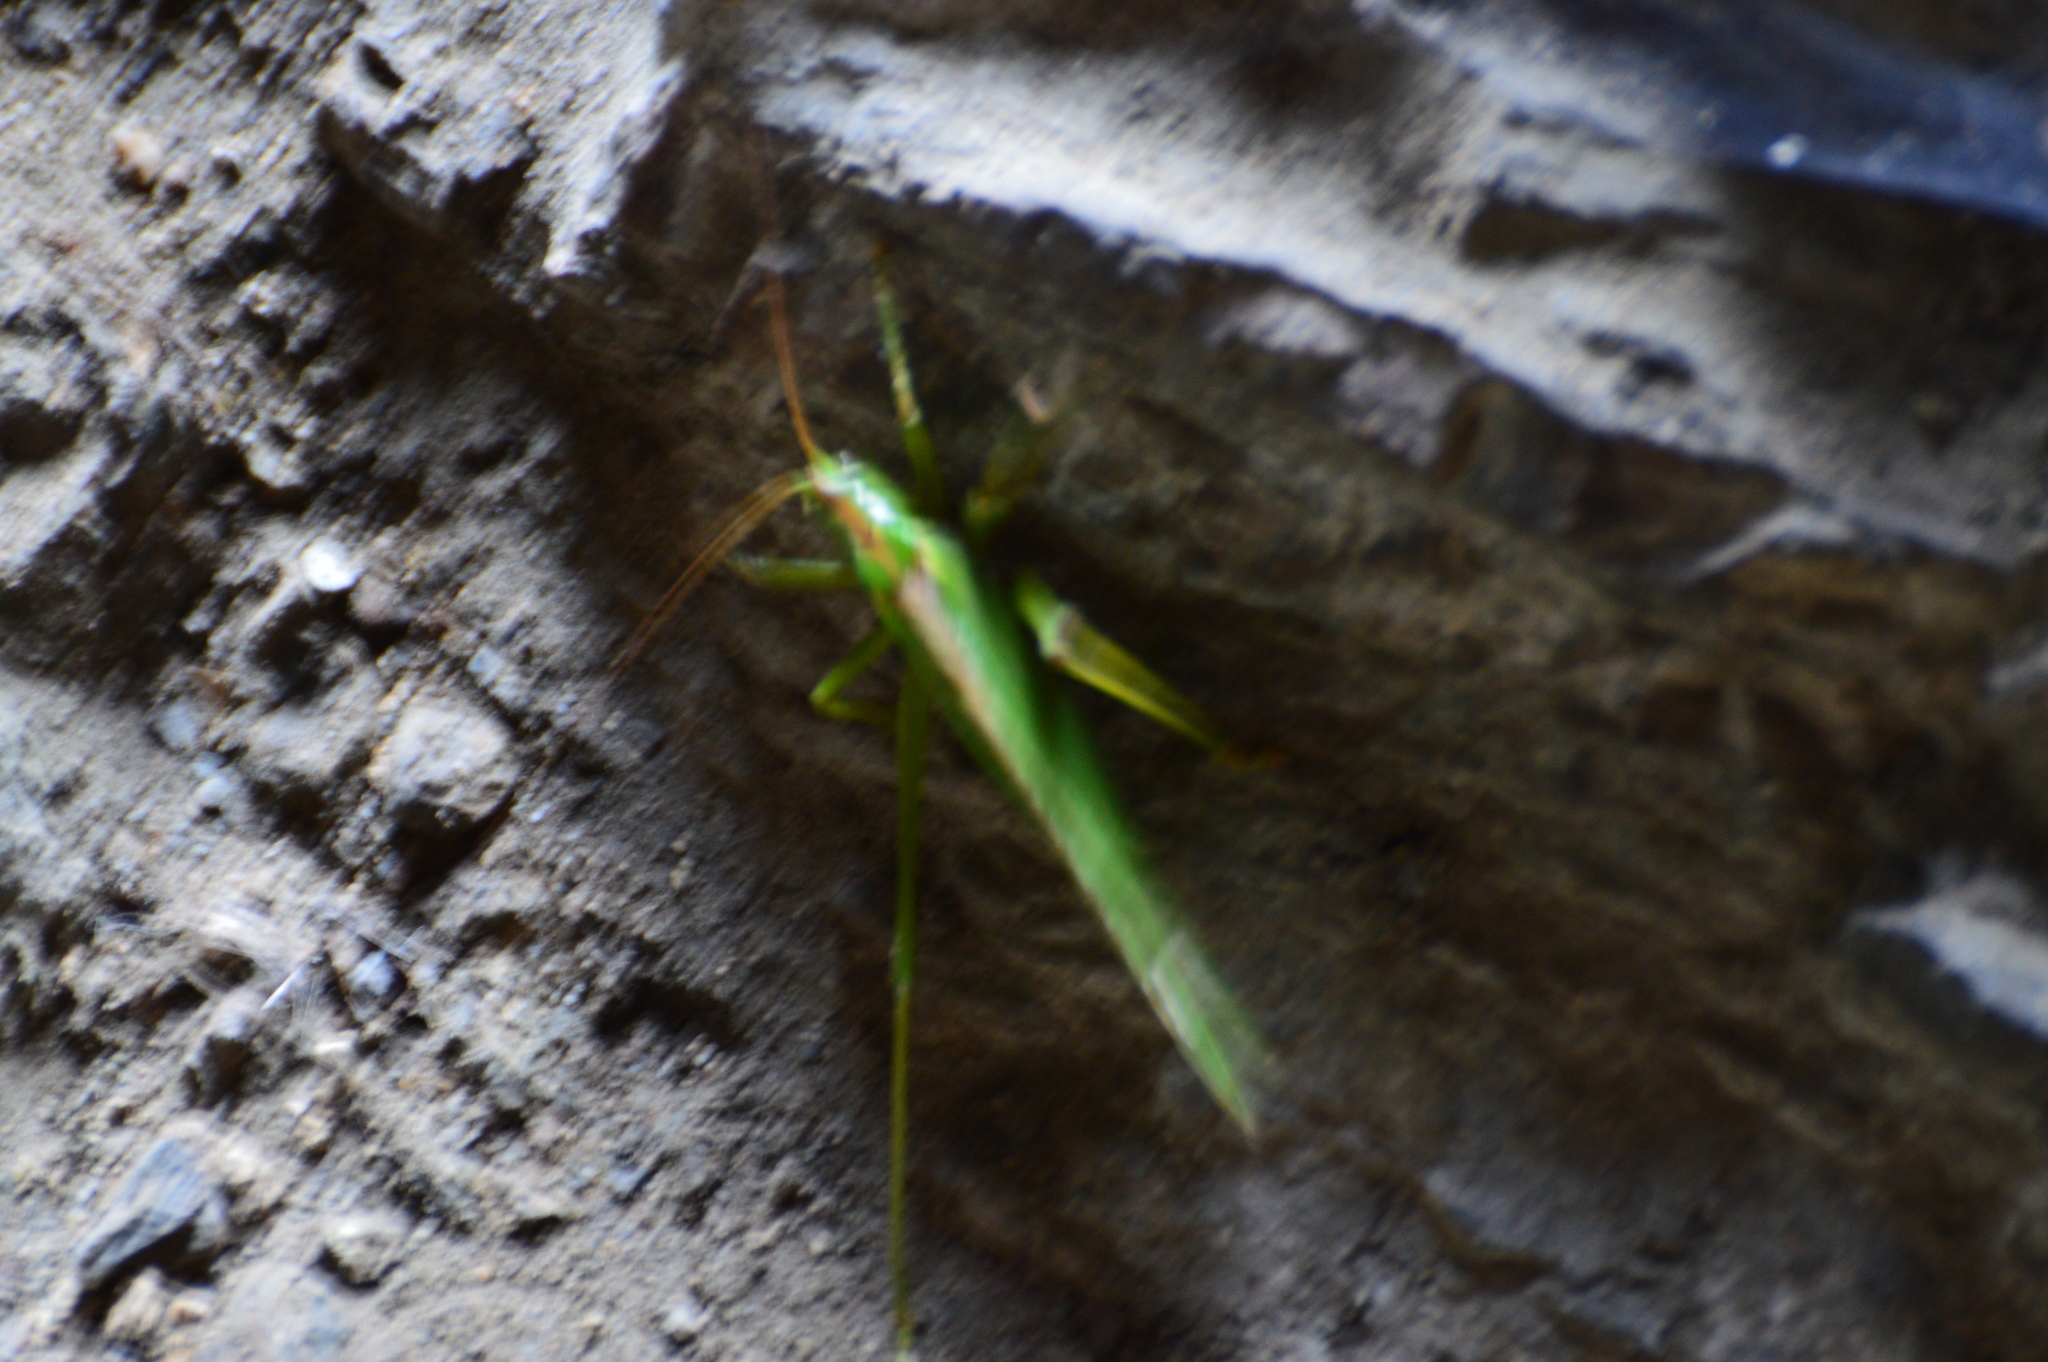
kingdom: Animalia
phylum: Arthropoda
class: Insecta
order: Orthoptera
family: Tettigoniidae
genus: Tettigonia
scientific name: Tettigonia viridissima
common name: Great green bush-cricket
